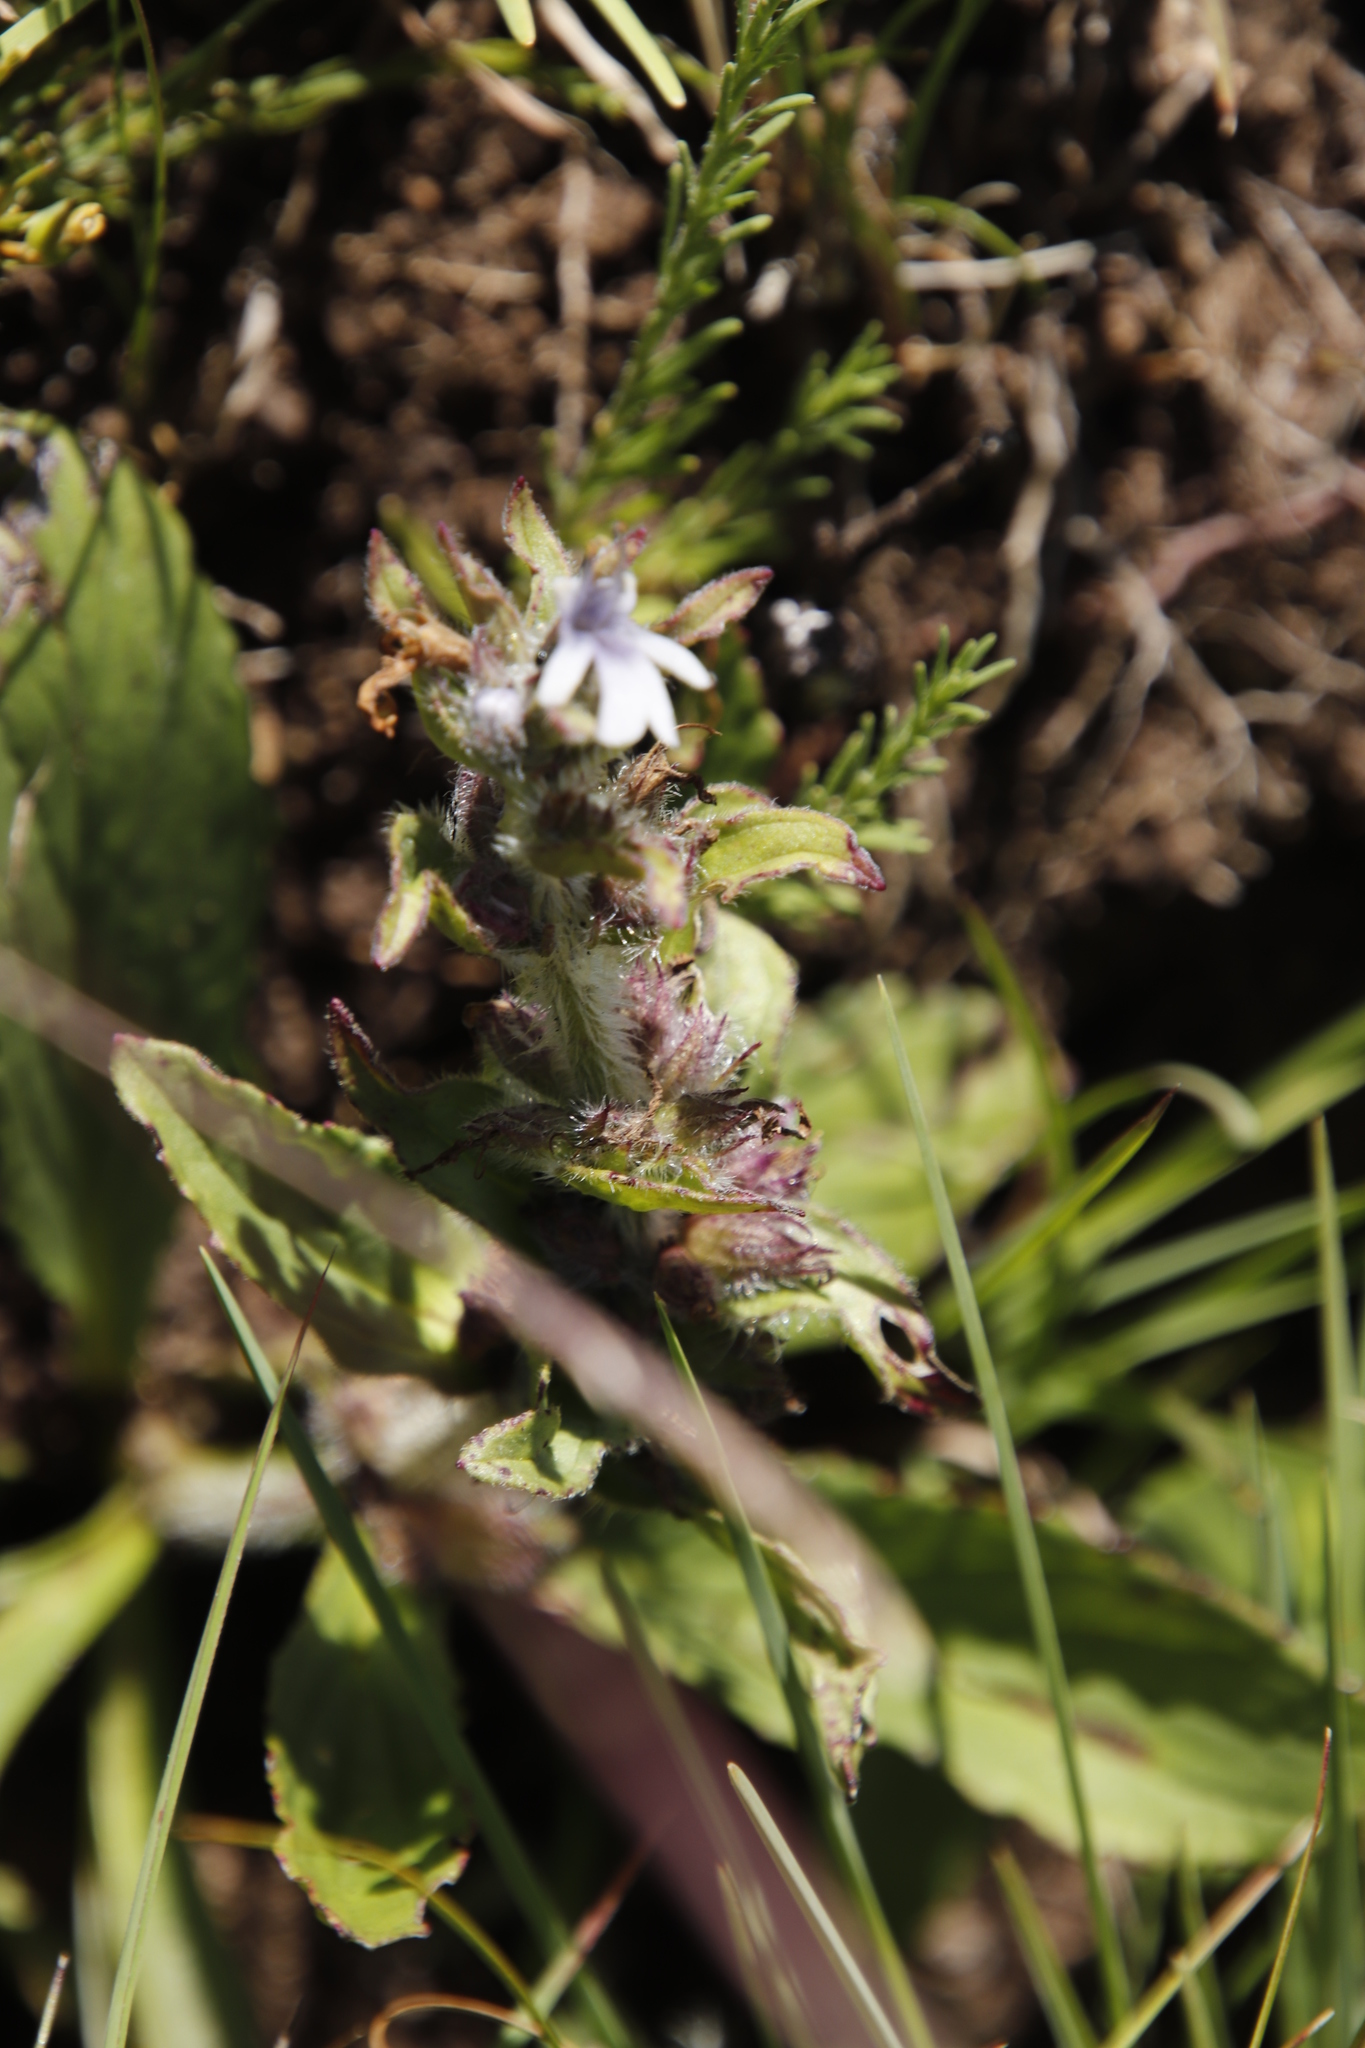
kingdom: Plantae
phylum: Tracheophyta
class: Magnoliopsida
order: Lamiales
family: Lamiaceae
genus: Ajuga
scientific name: Ajuga ophrydis
